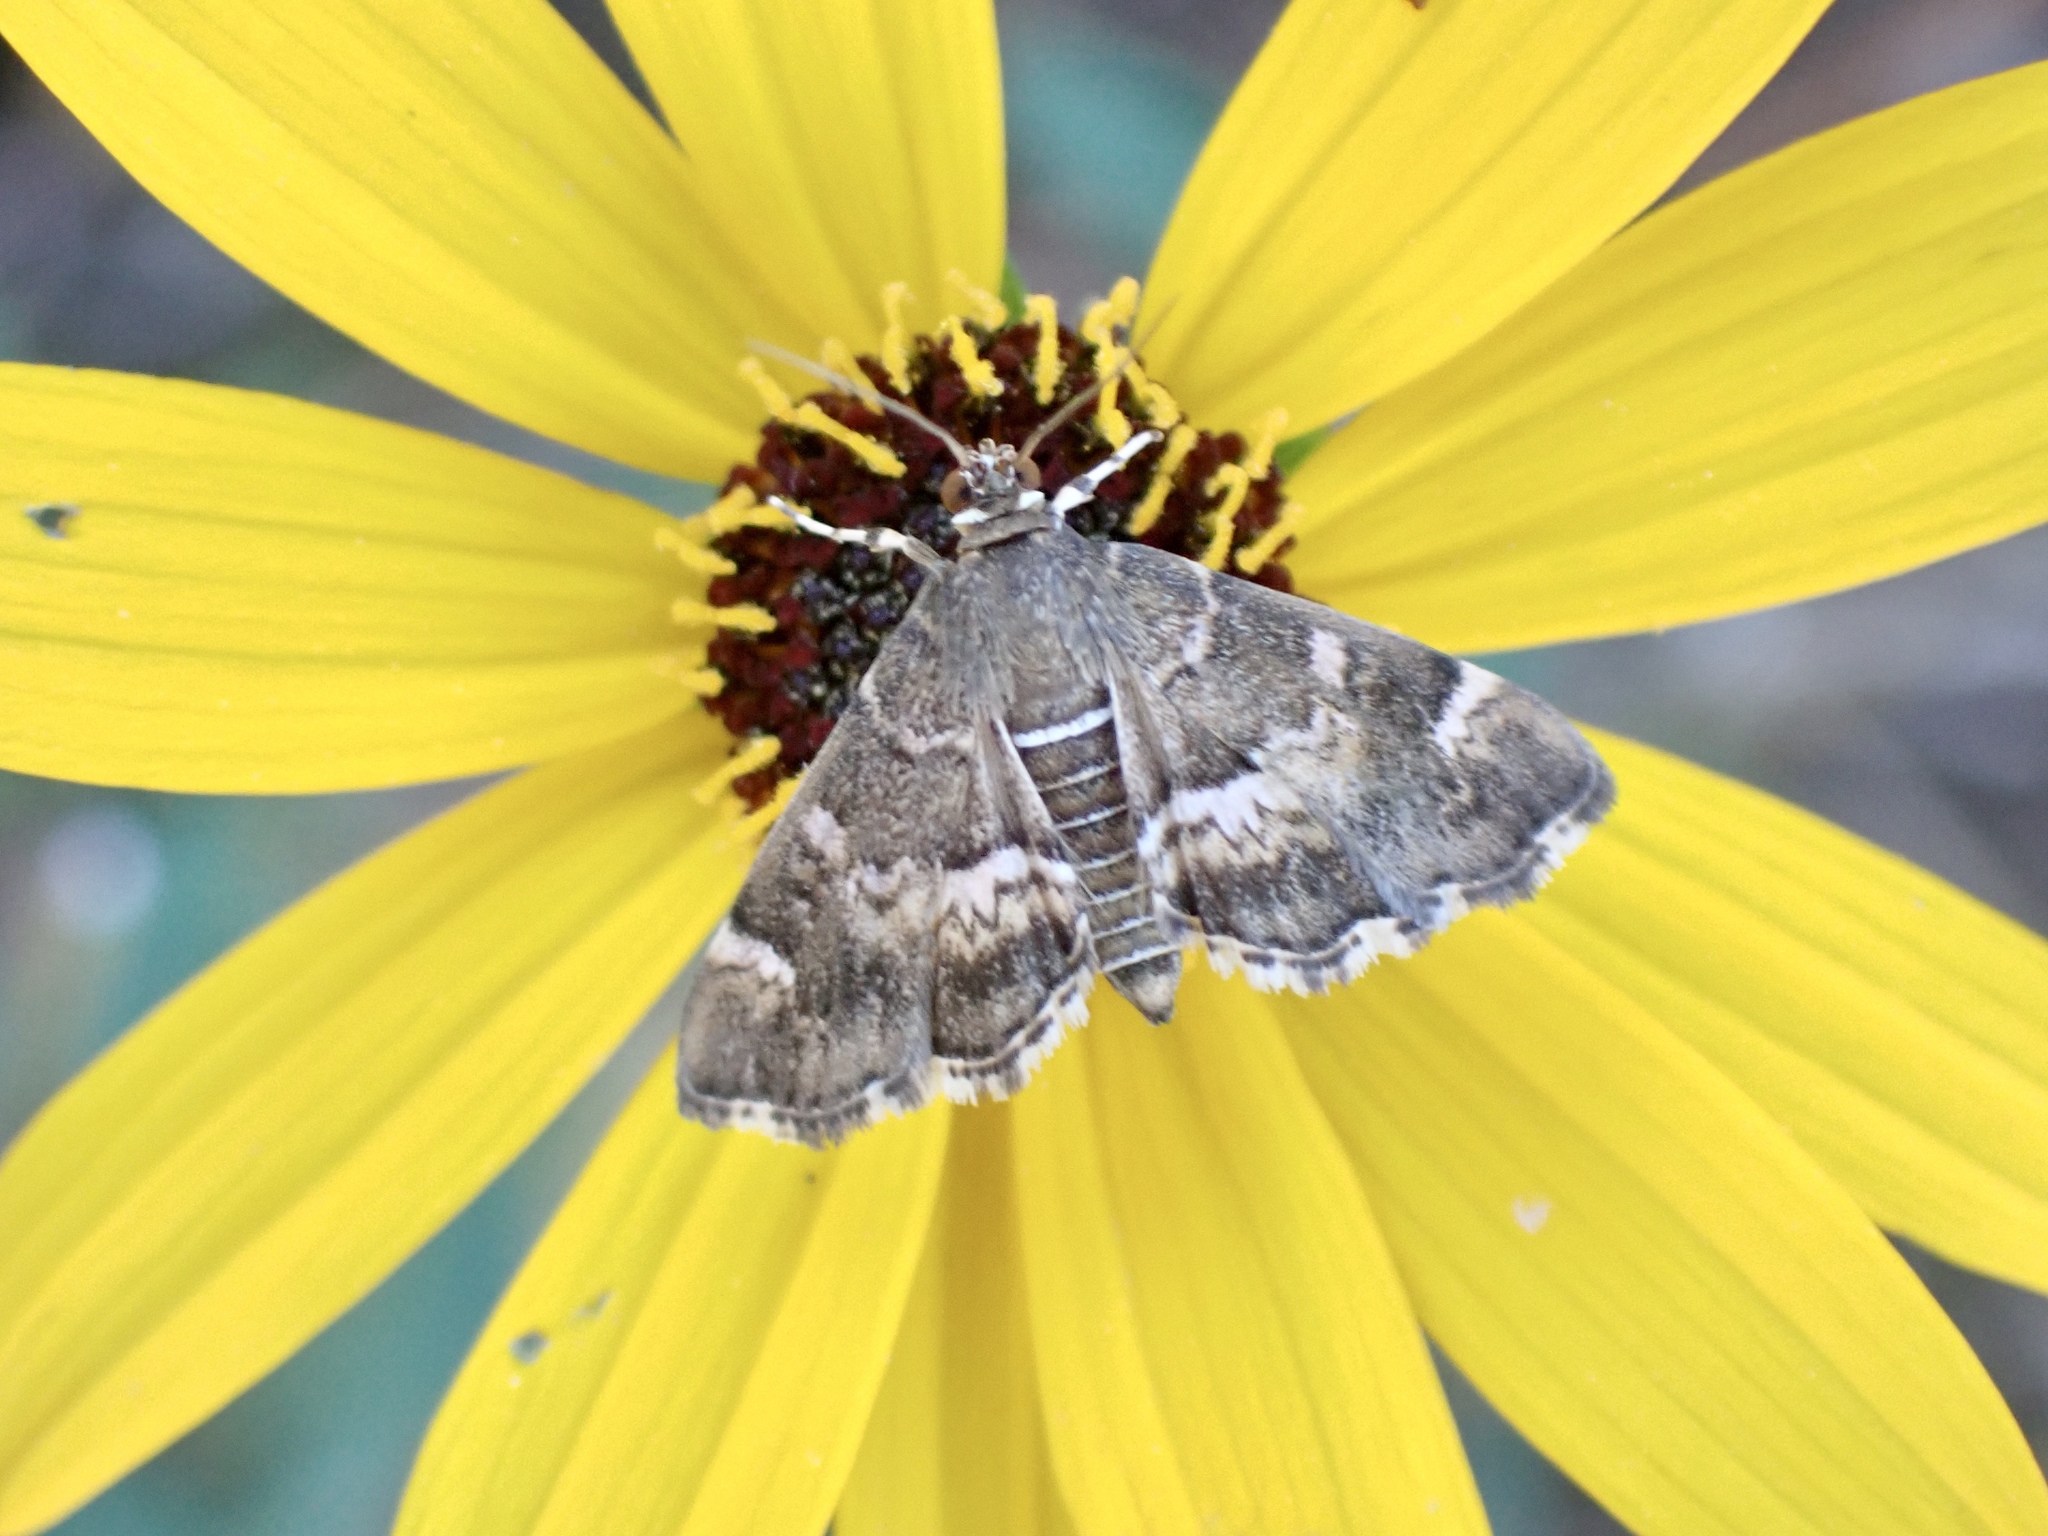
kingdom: Animalia
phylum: Arthropoda
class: Insecta
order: Lepidoptera
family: Crambidae
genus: Hymenia
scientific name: Hymenia perspectalis
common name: Spotted beet webworm
